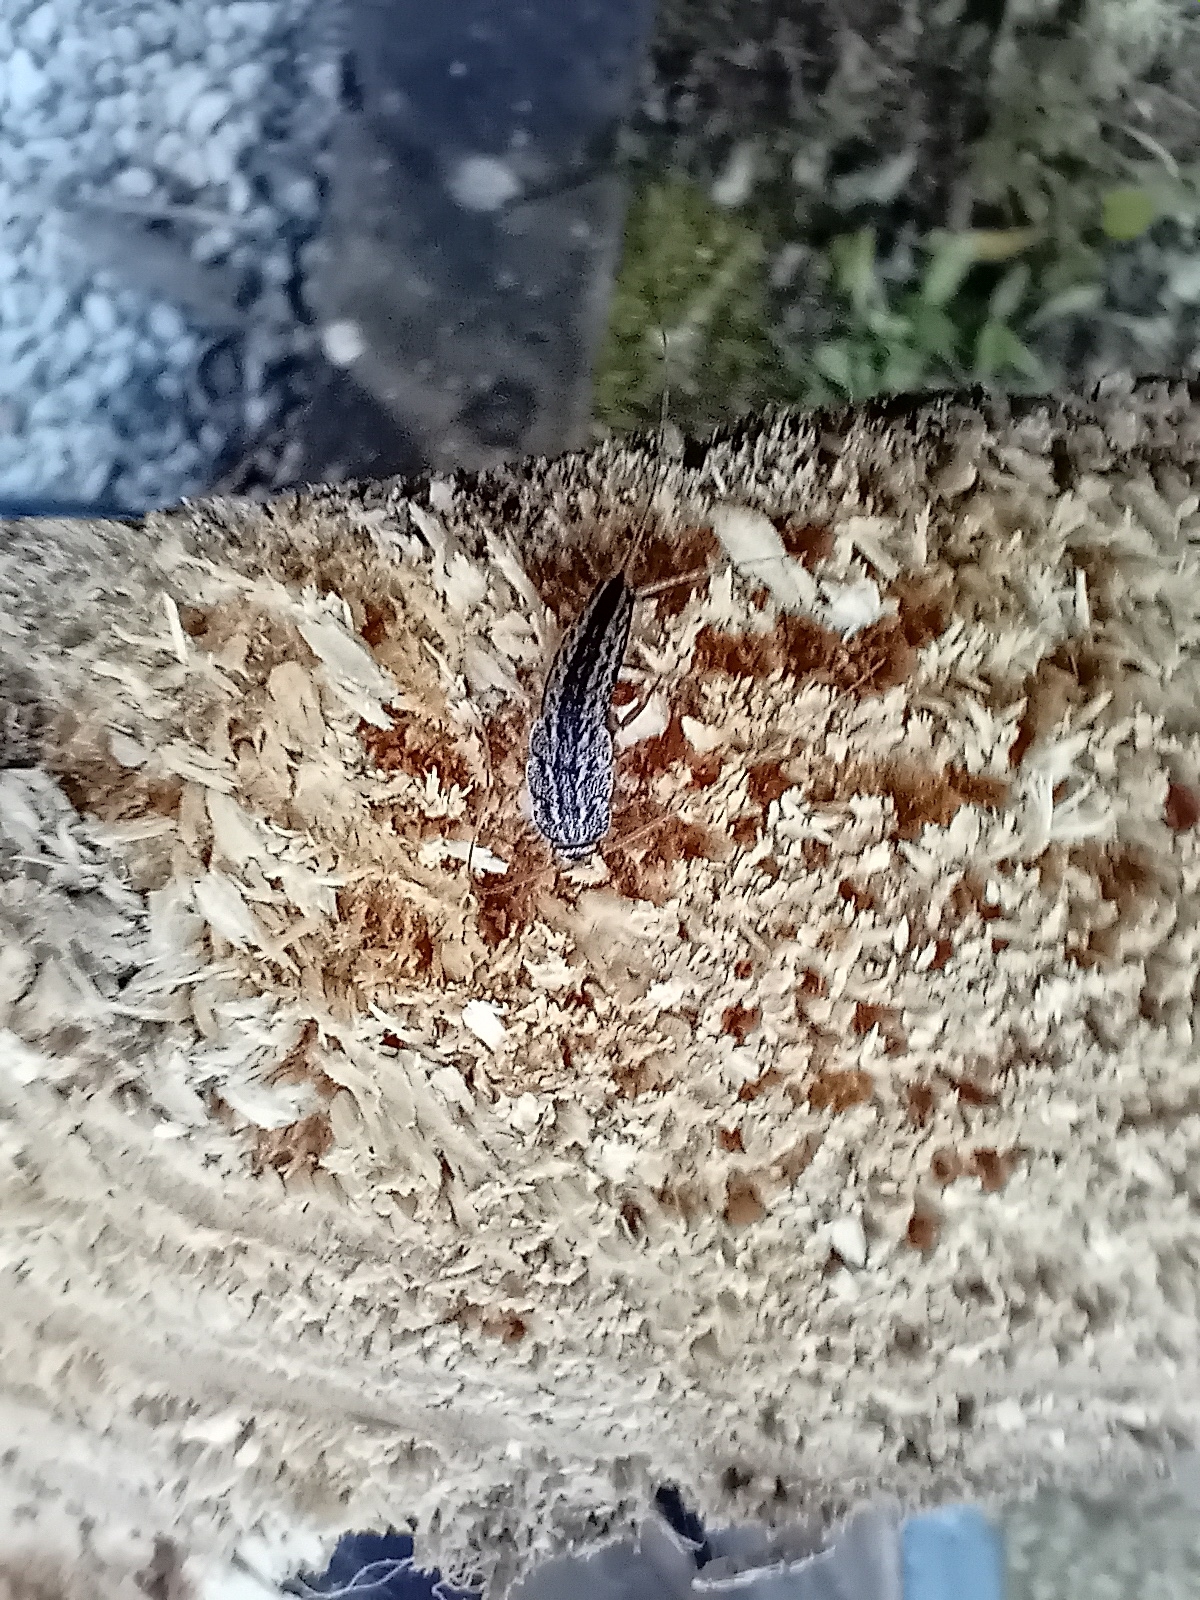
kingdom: Animalia
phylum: Arthropoda
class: Insecta
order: Zygentoma
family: Lepismatidae
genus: Ctenolepisma
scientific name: Ctenolepisma lineata
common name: Four-lined silverfish
